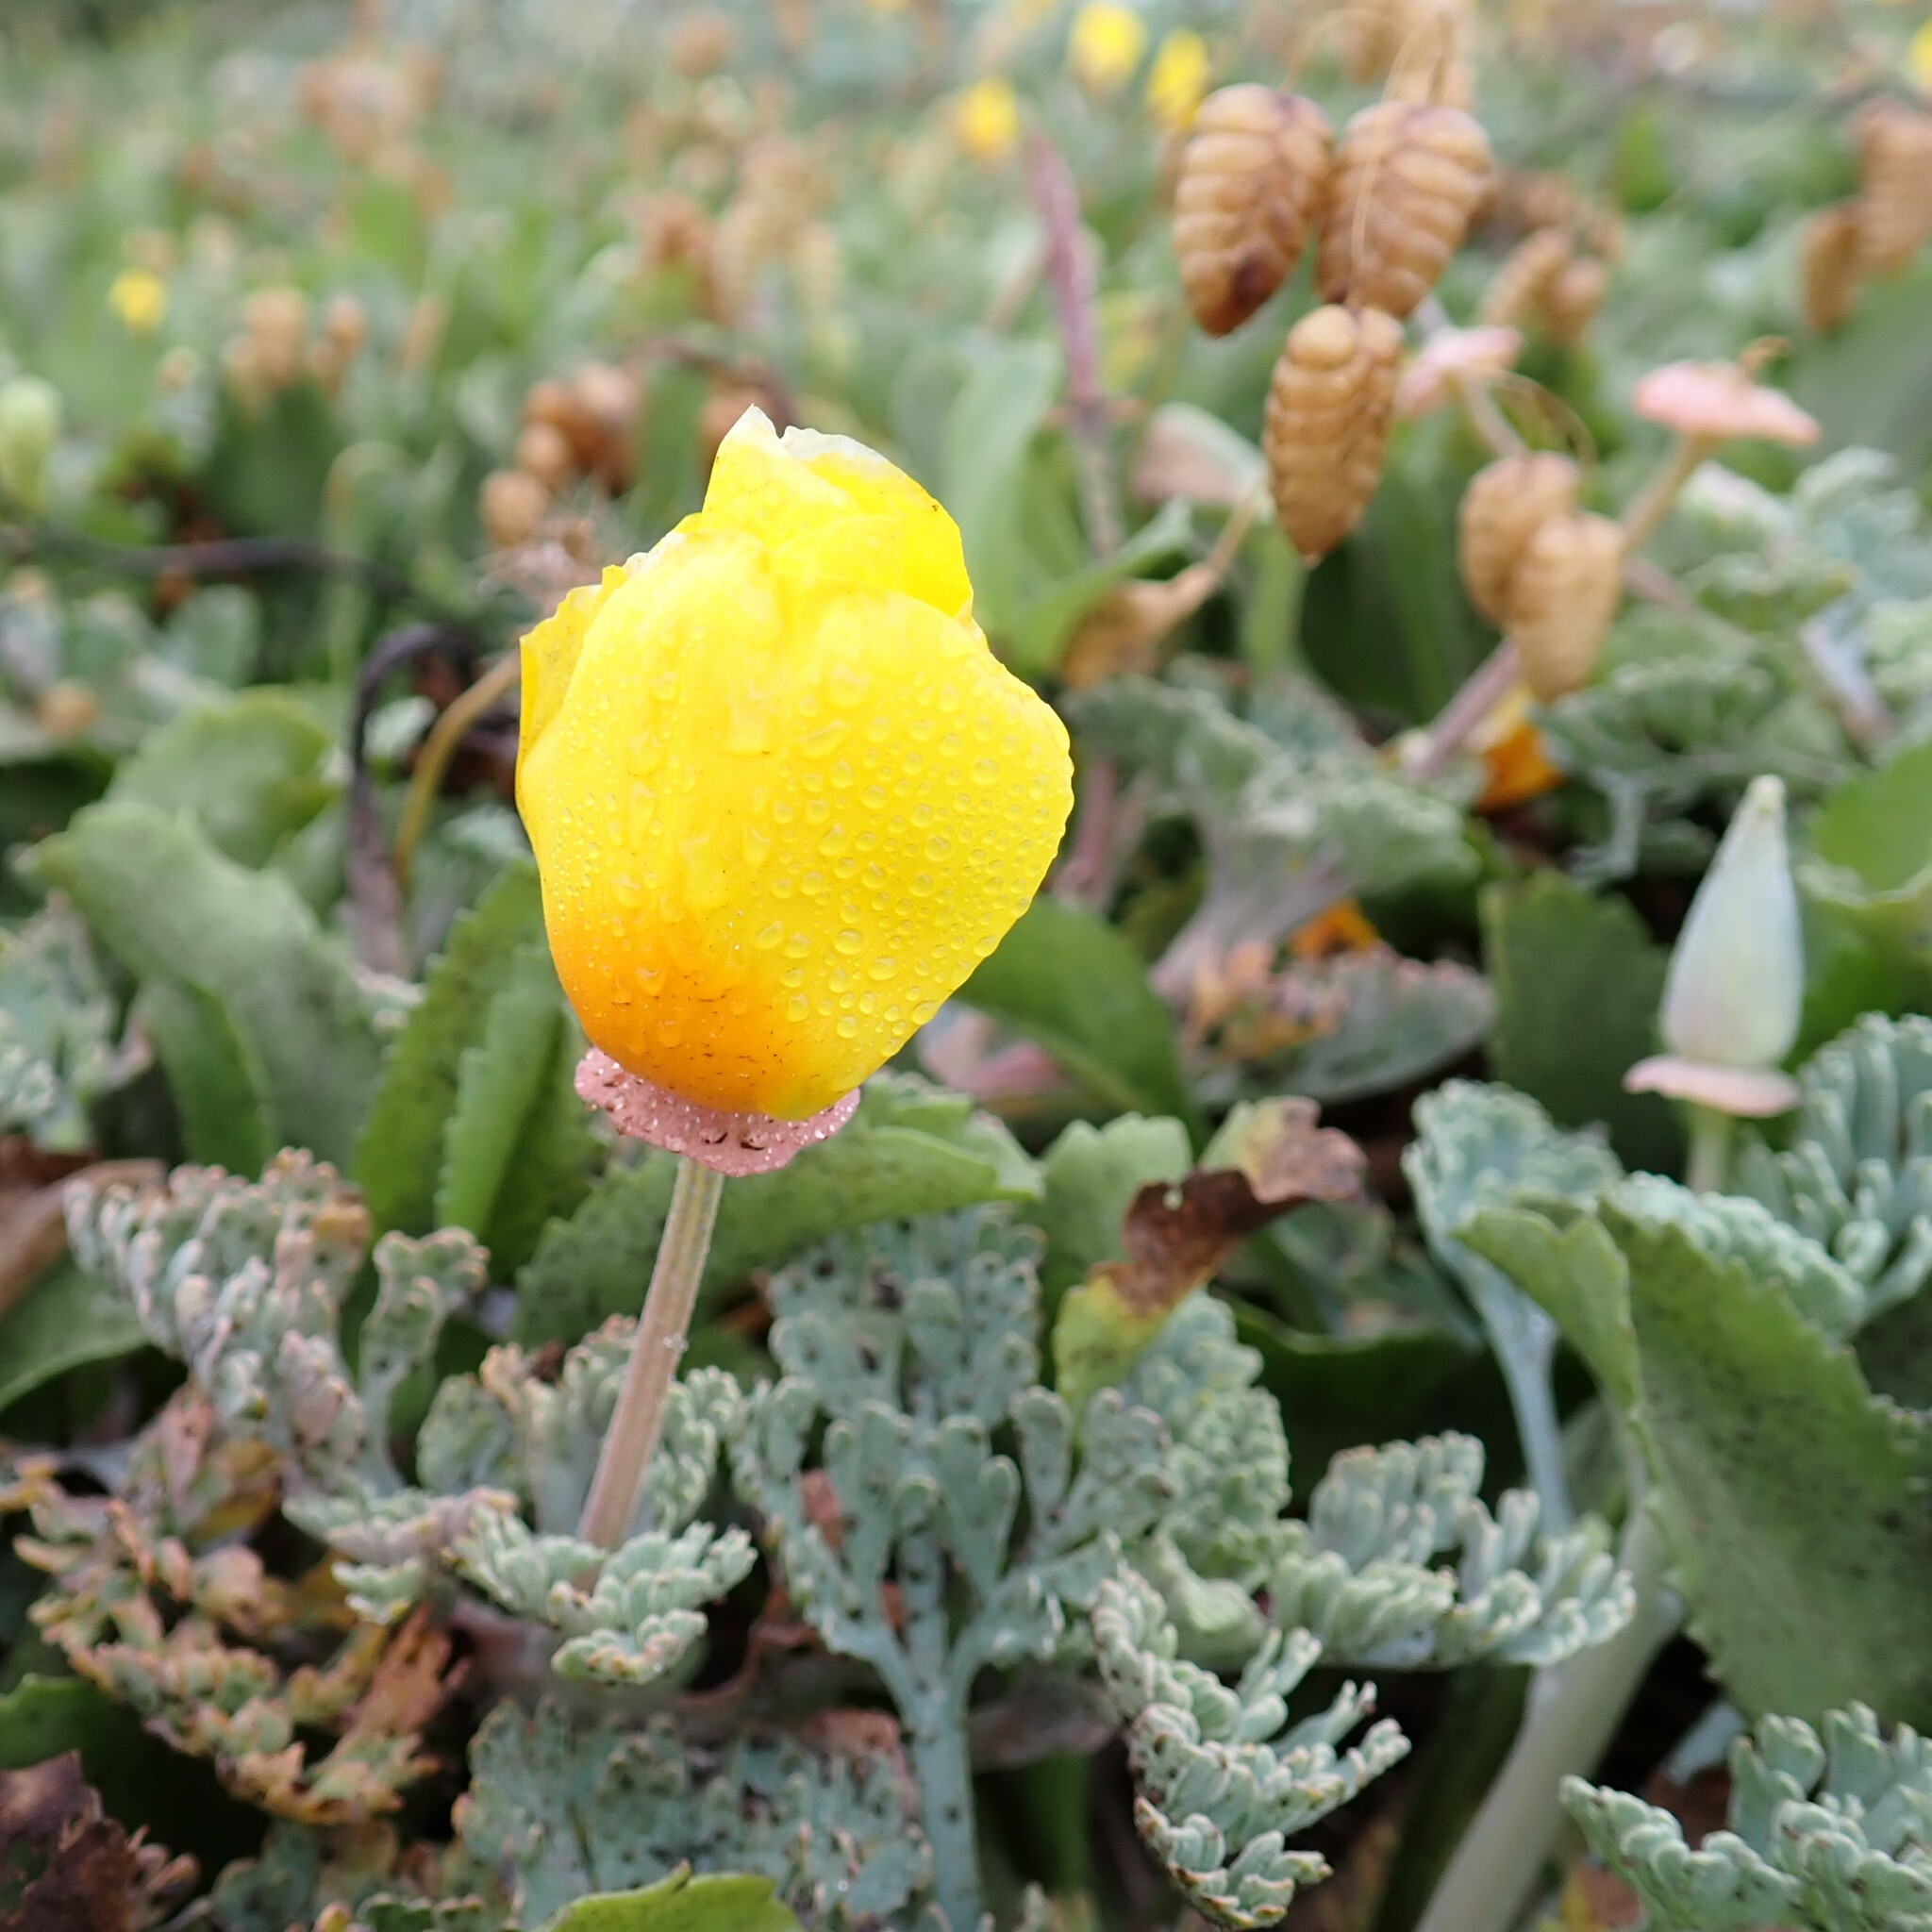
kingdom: Plantae
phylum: Tracheophyta
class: Magnoliopsida
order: Ranunculales
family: Papaveraceae
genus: Eschscholzia
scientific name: Eschscholzia californica
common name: California poppy
